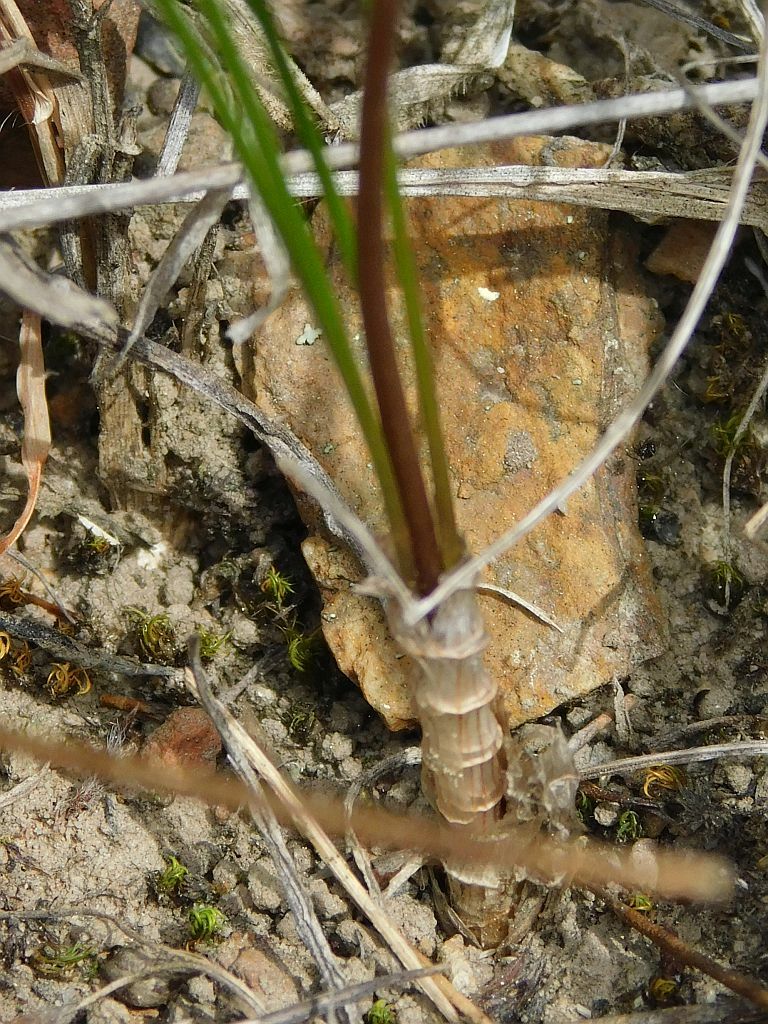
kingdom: Plantae
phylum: Tracheophyta
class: Liliopsida
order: Asparagales
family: Asparagaceae
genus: Drimia
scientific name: Drimia exuviata
